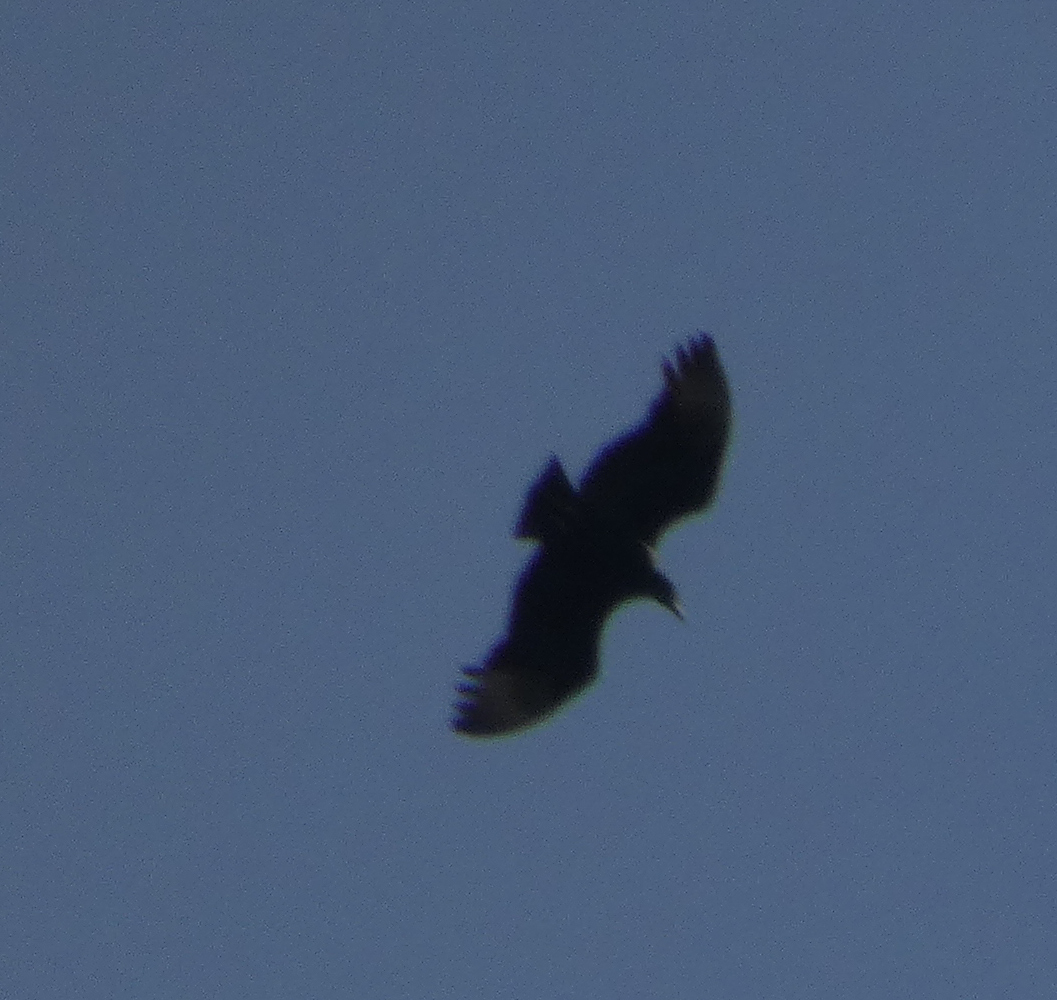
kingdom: Animalia
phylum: Chordata
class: Aves
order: Accipitriformes
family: Cathartidae
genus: Coragyps
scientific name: Coragyps atratus
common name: Black vulture
